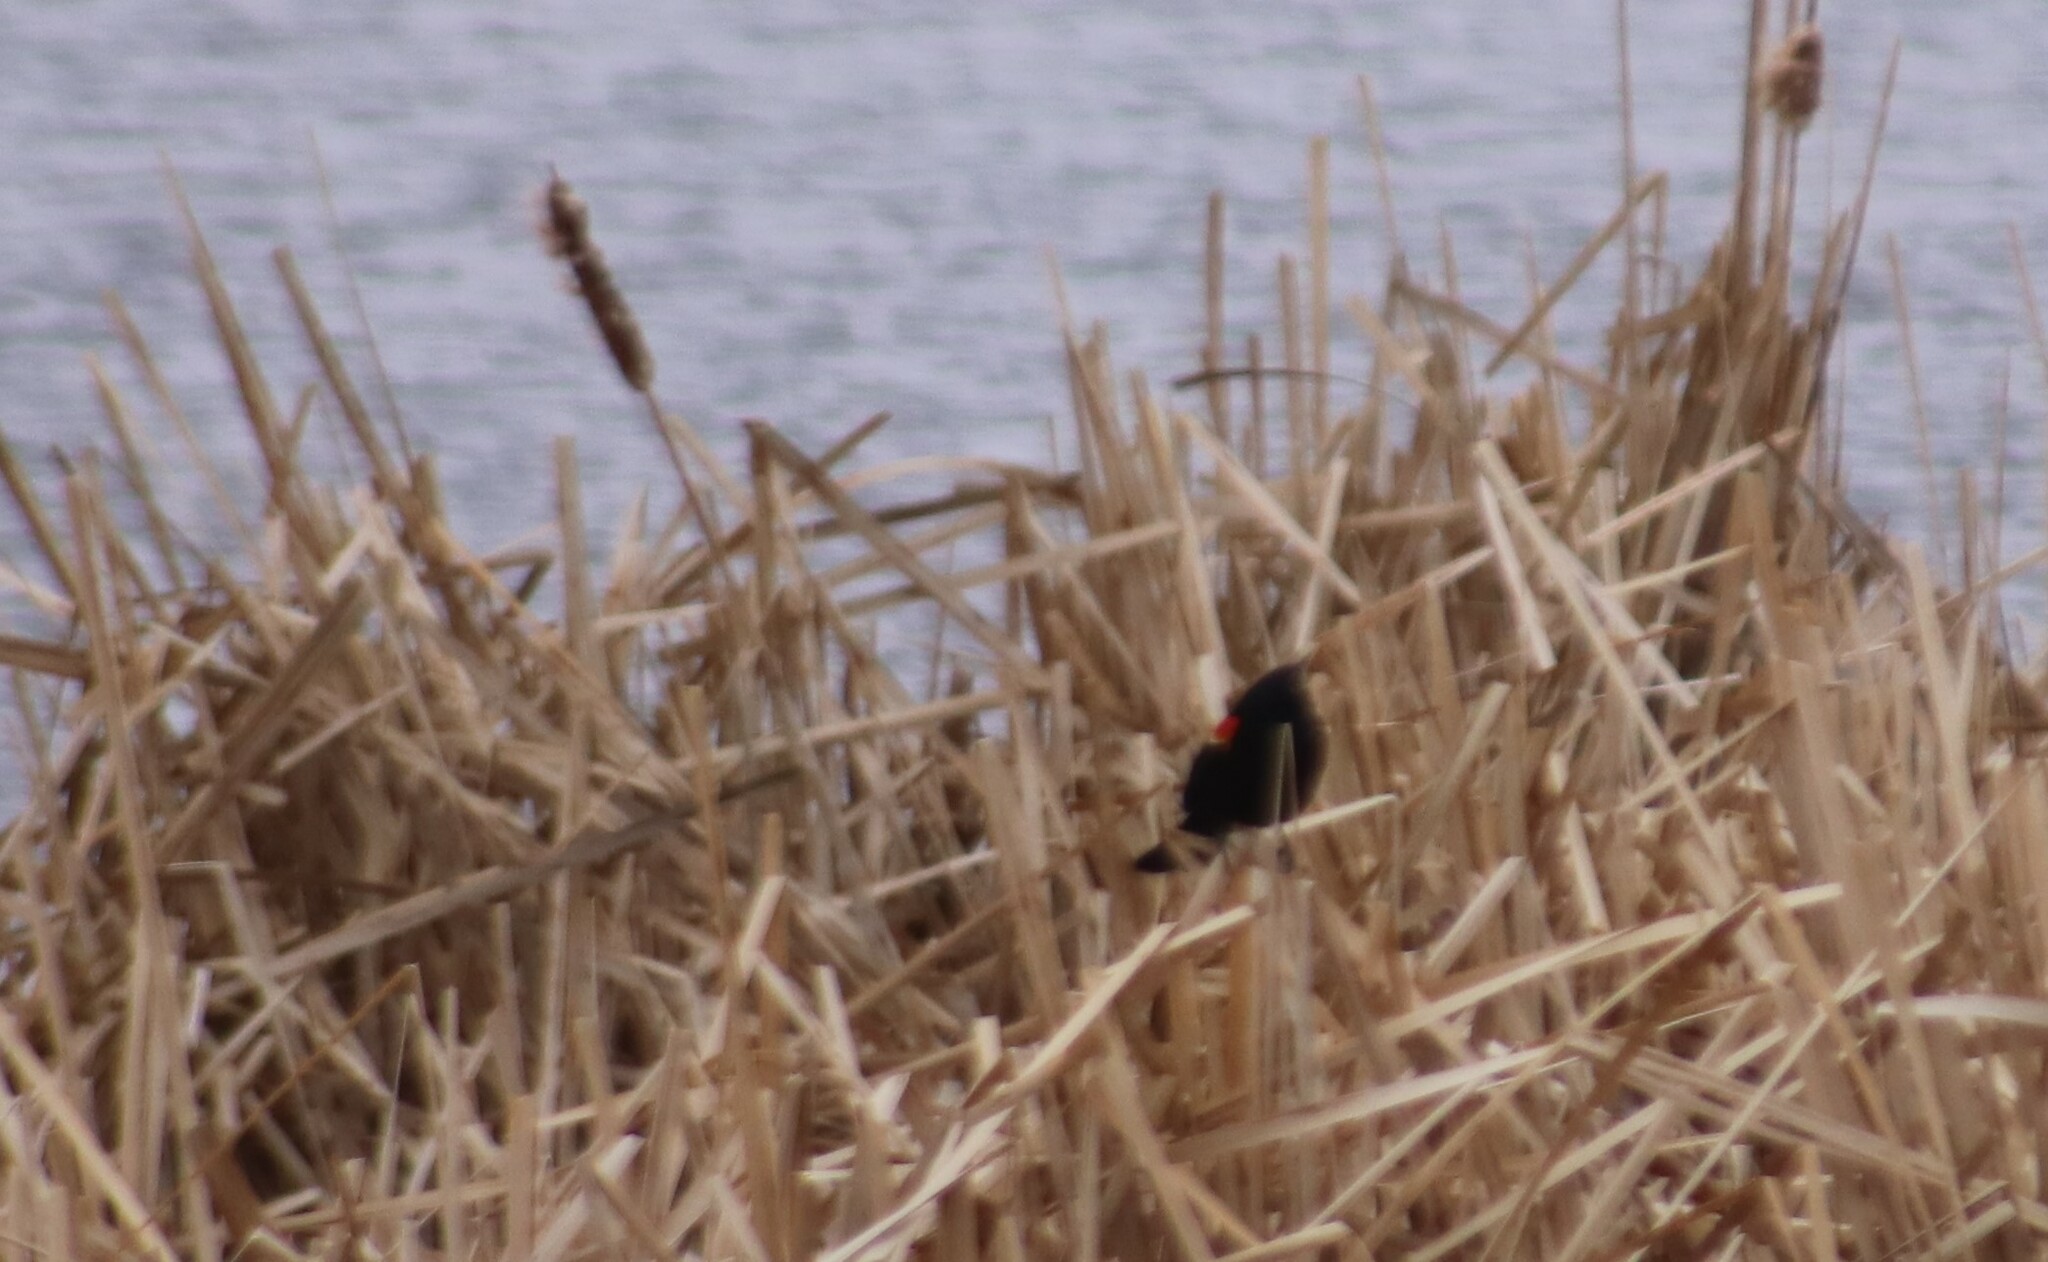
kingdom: Animalia
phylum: Chordata
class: Aves
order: Passeriformes
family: Icteridae
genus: Agelaius
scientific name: Agelaius phoeniceus
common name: Red-winged blackbird
